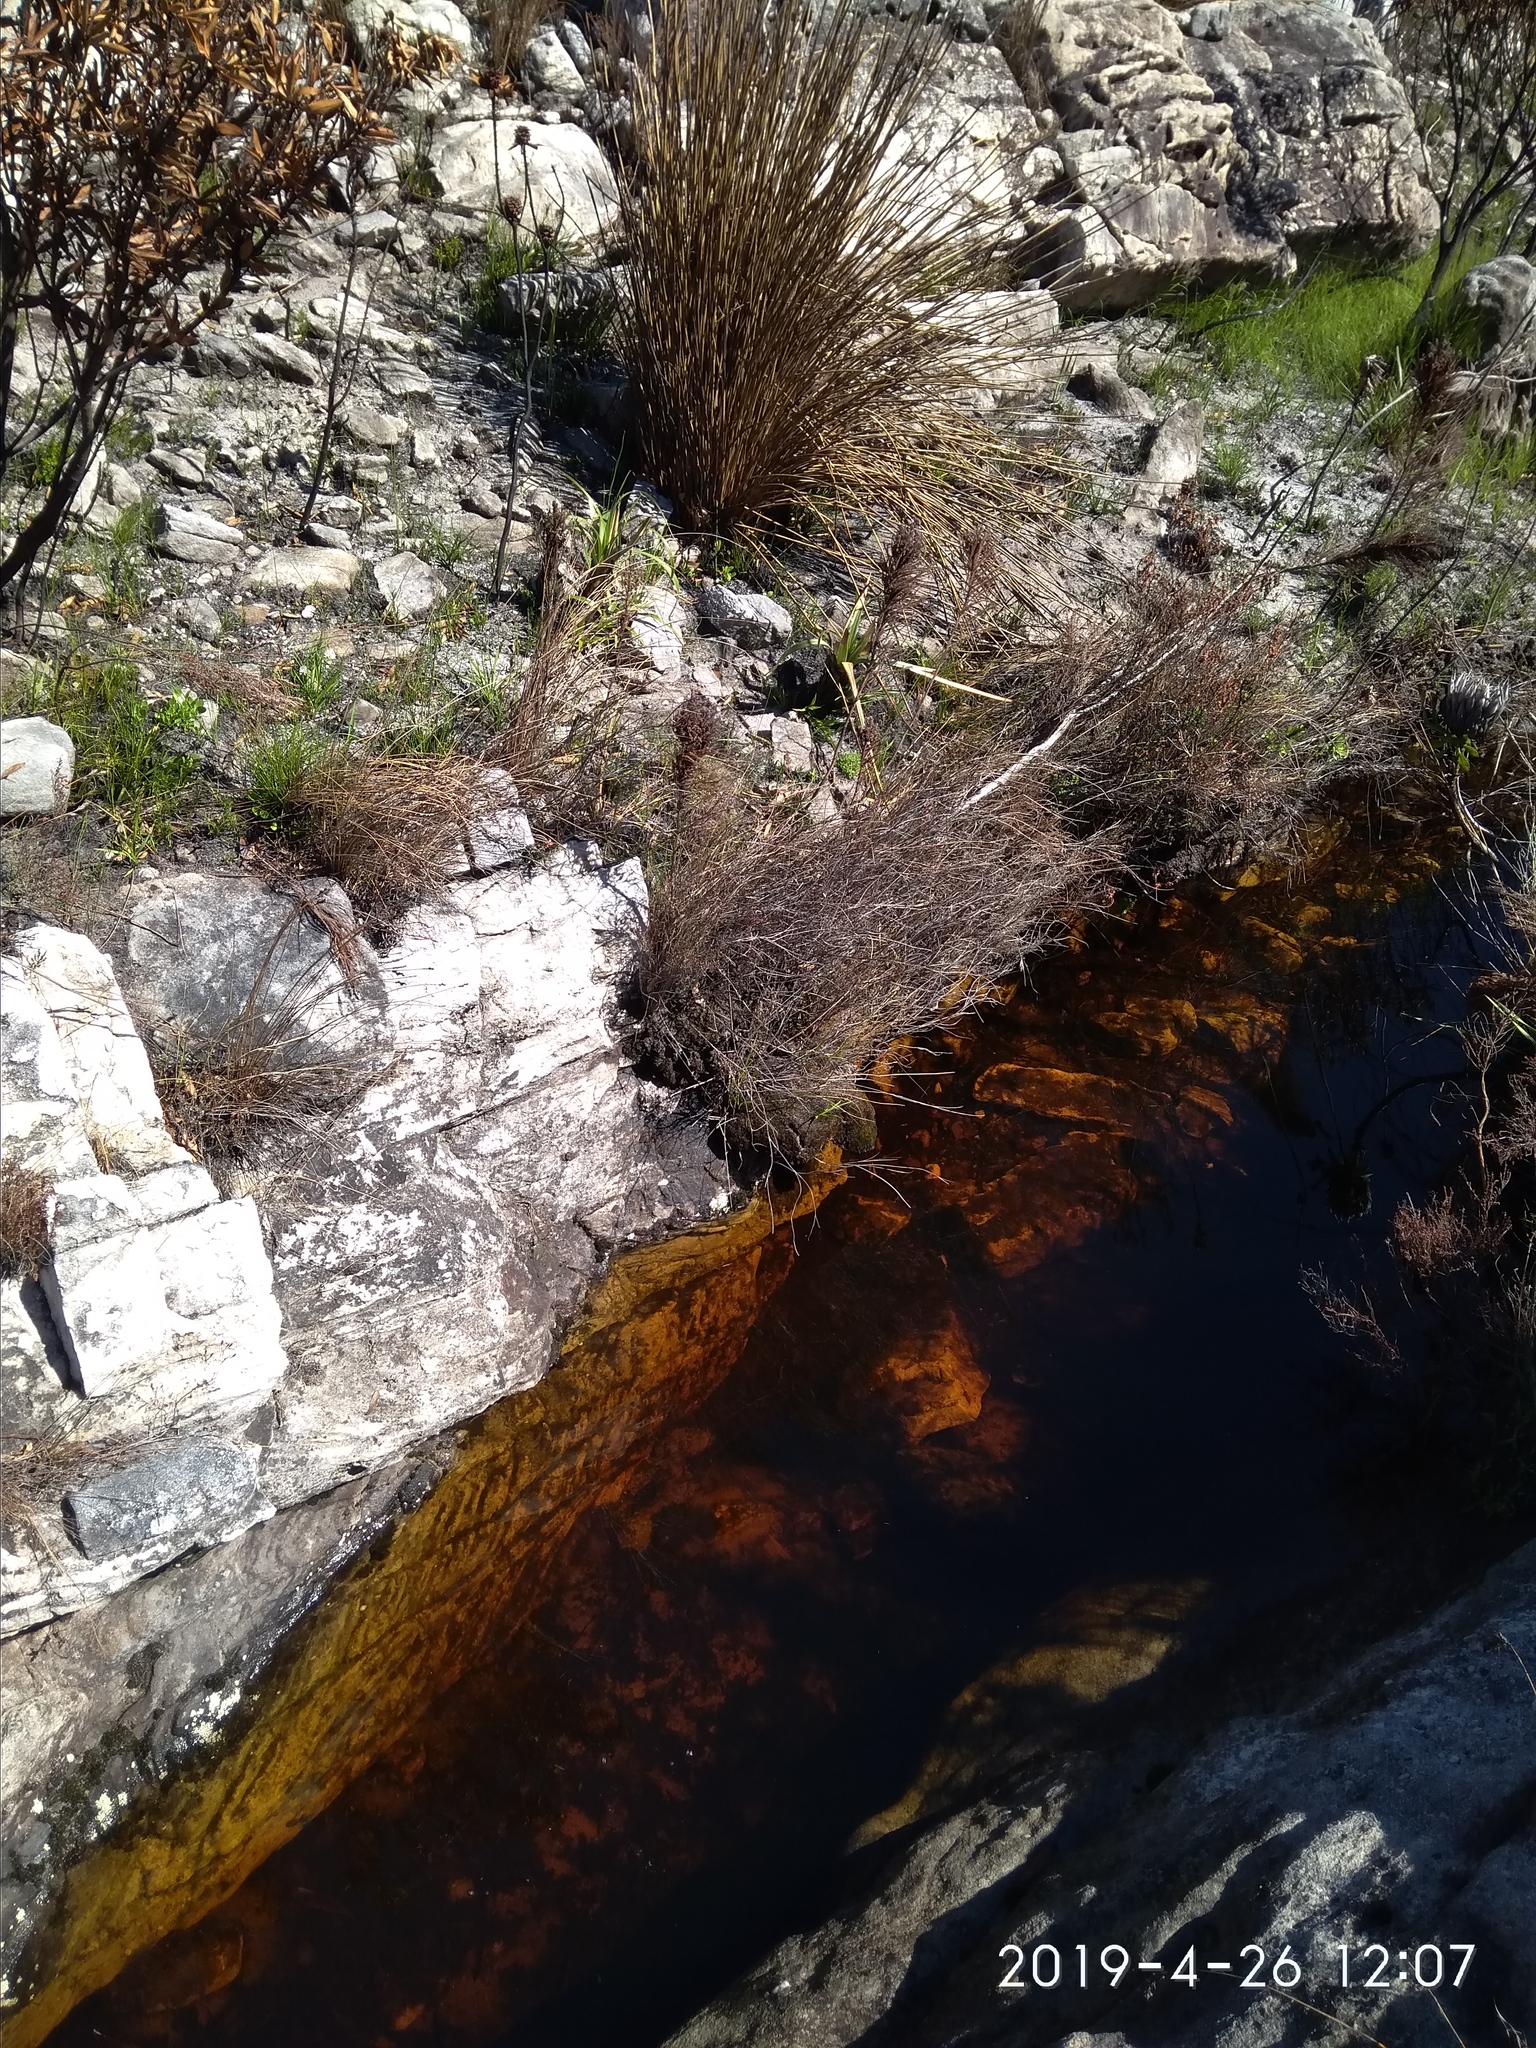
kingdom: Animalia
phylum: Arthropoda
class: Insecta
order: Odonata
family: Synlestidae
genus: Ecchlorolestes
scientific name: Ecchlorolestes peringueyi
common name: Marbled malachite
